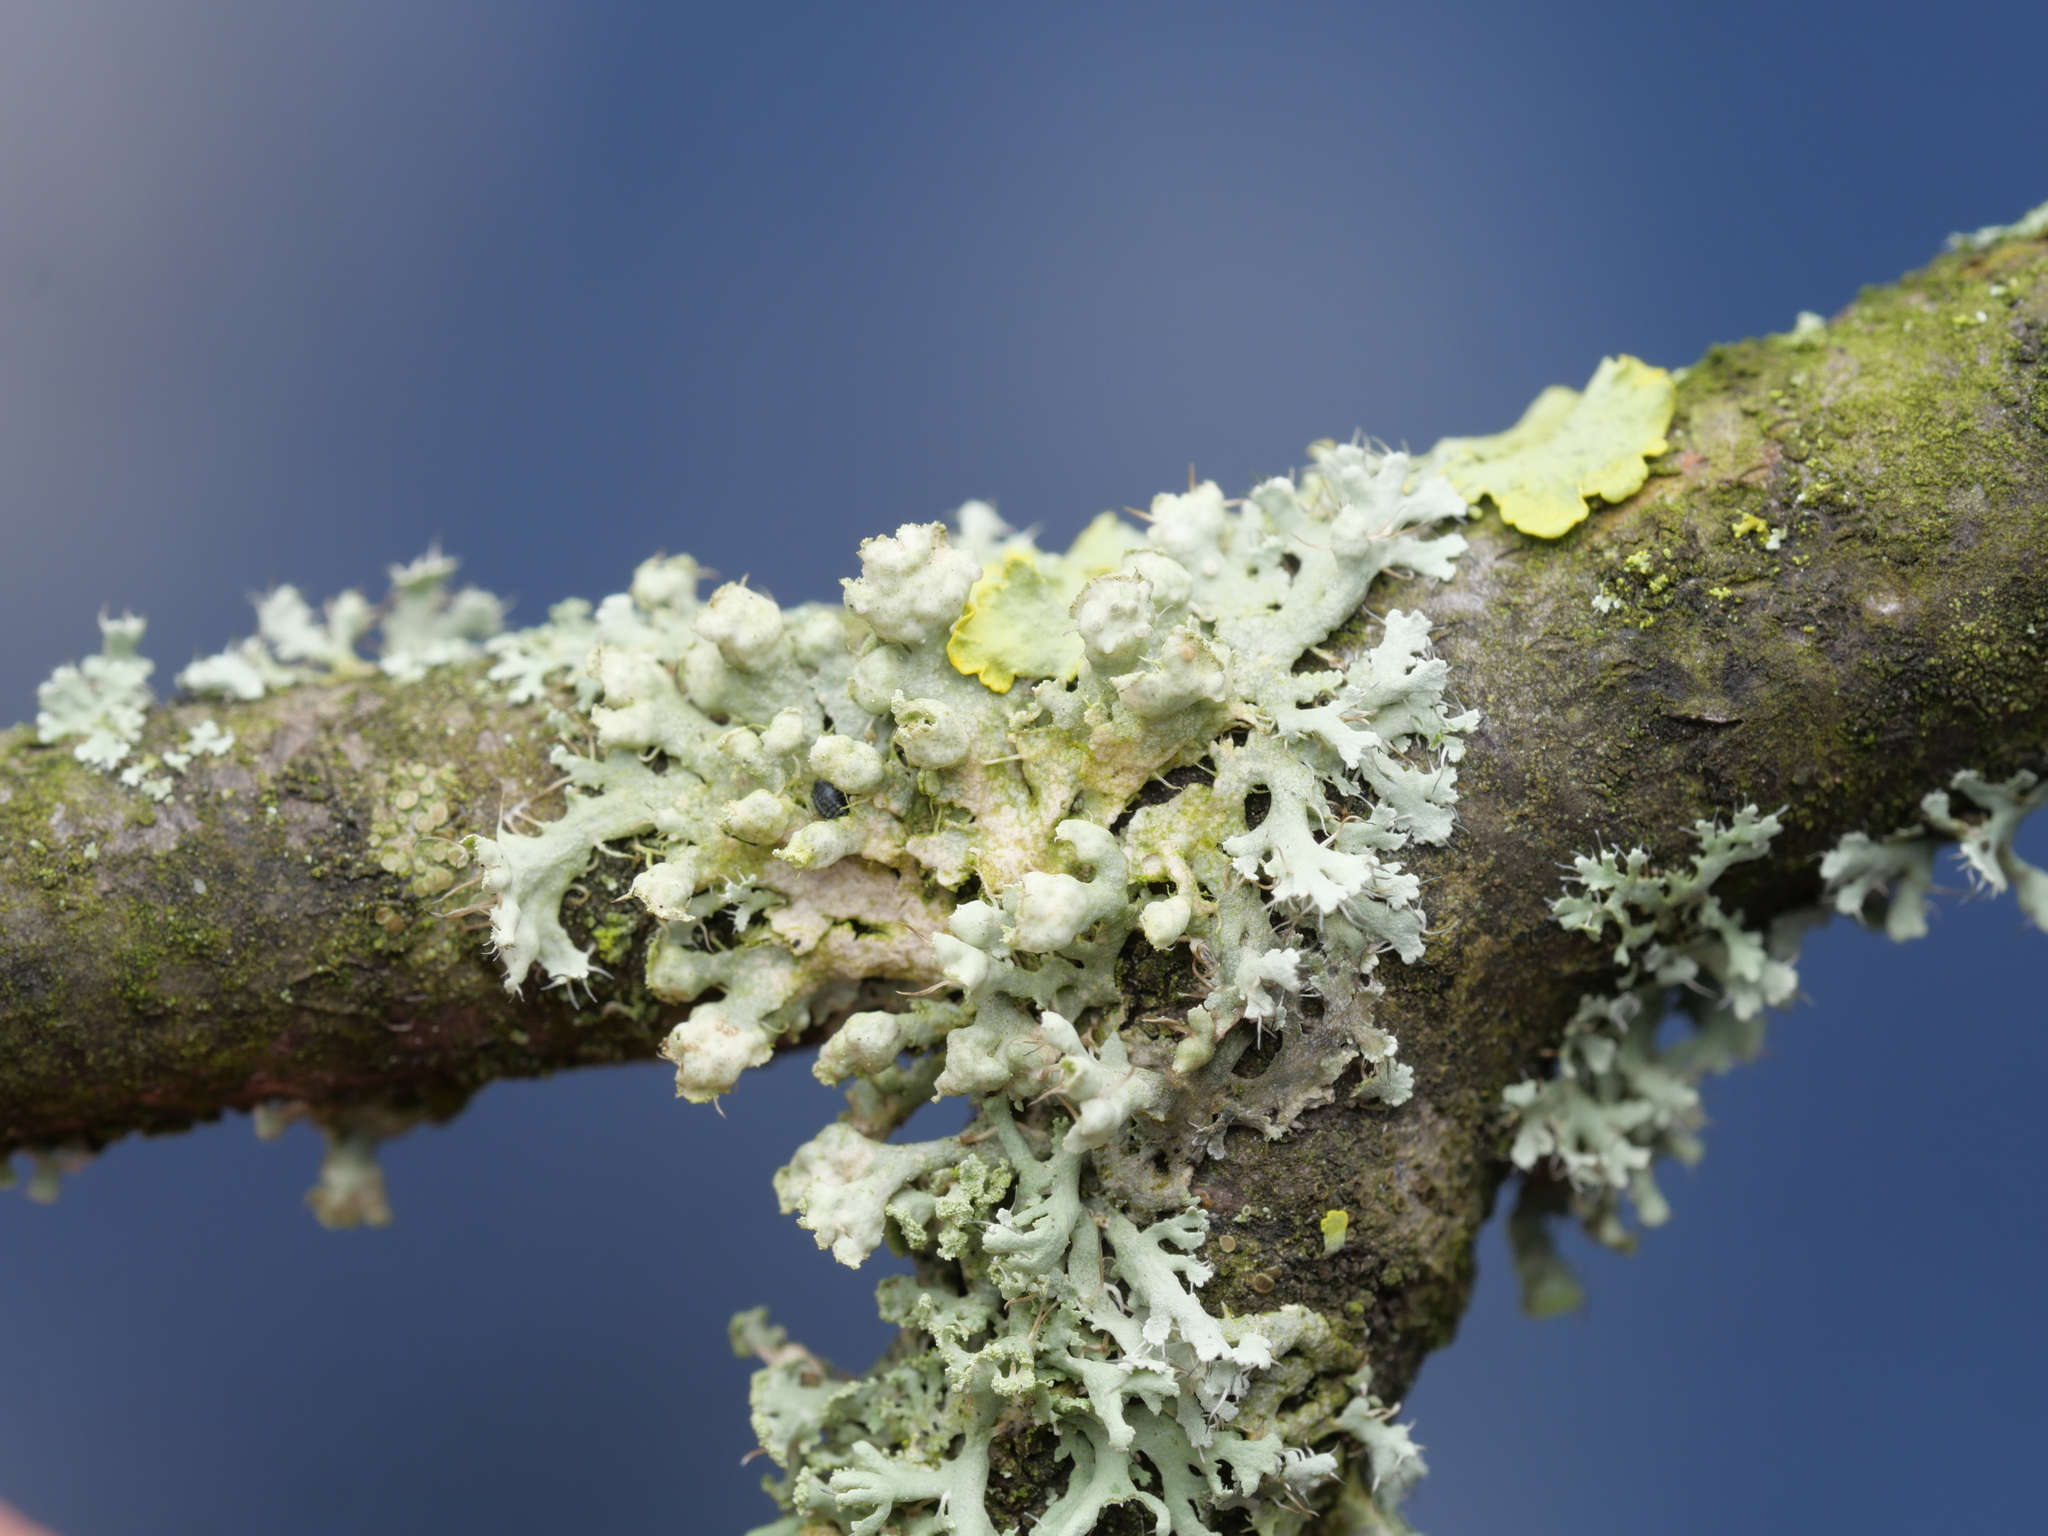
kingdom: Fungi
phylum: Ascomycota
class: Lecanoromycetes
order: Caliciales
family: Physciaceae
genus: Physcia
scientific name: Physcia adscendens
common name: Hooded rosette lichen
